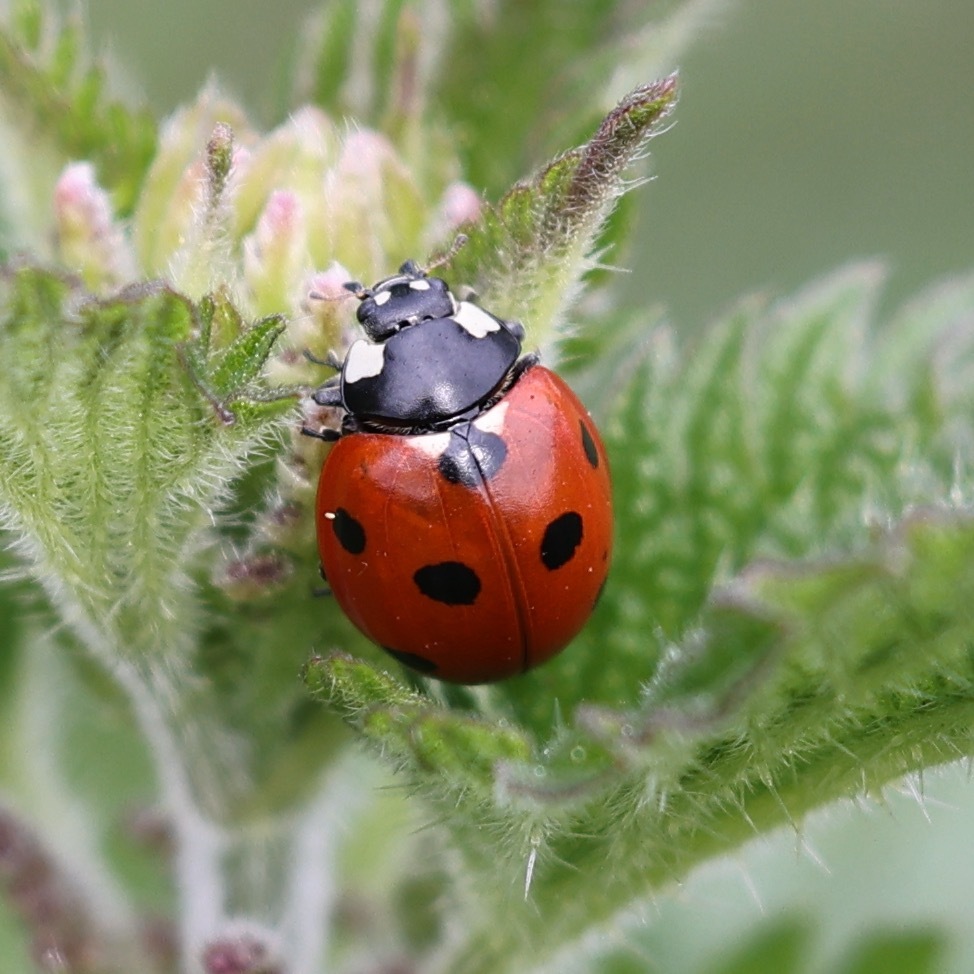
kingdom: Animalia
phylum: Arthropoda
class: Insecta
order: Coleoptera
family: Coccinellidae
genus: Coccinella
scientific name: Coccinella septempunctata
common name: Sevenspotted lady beetle
